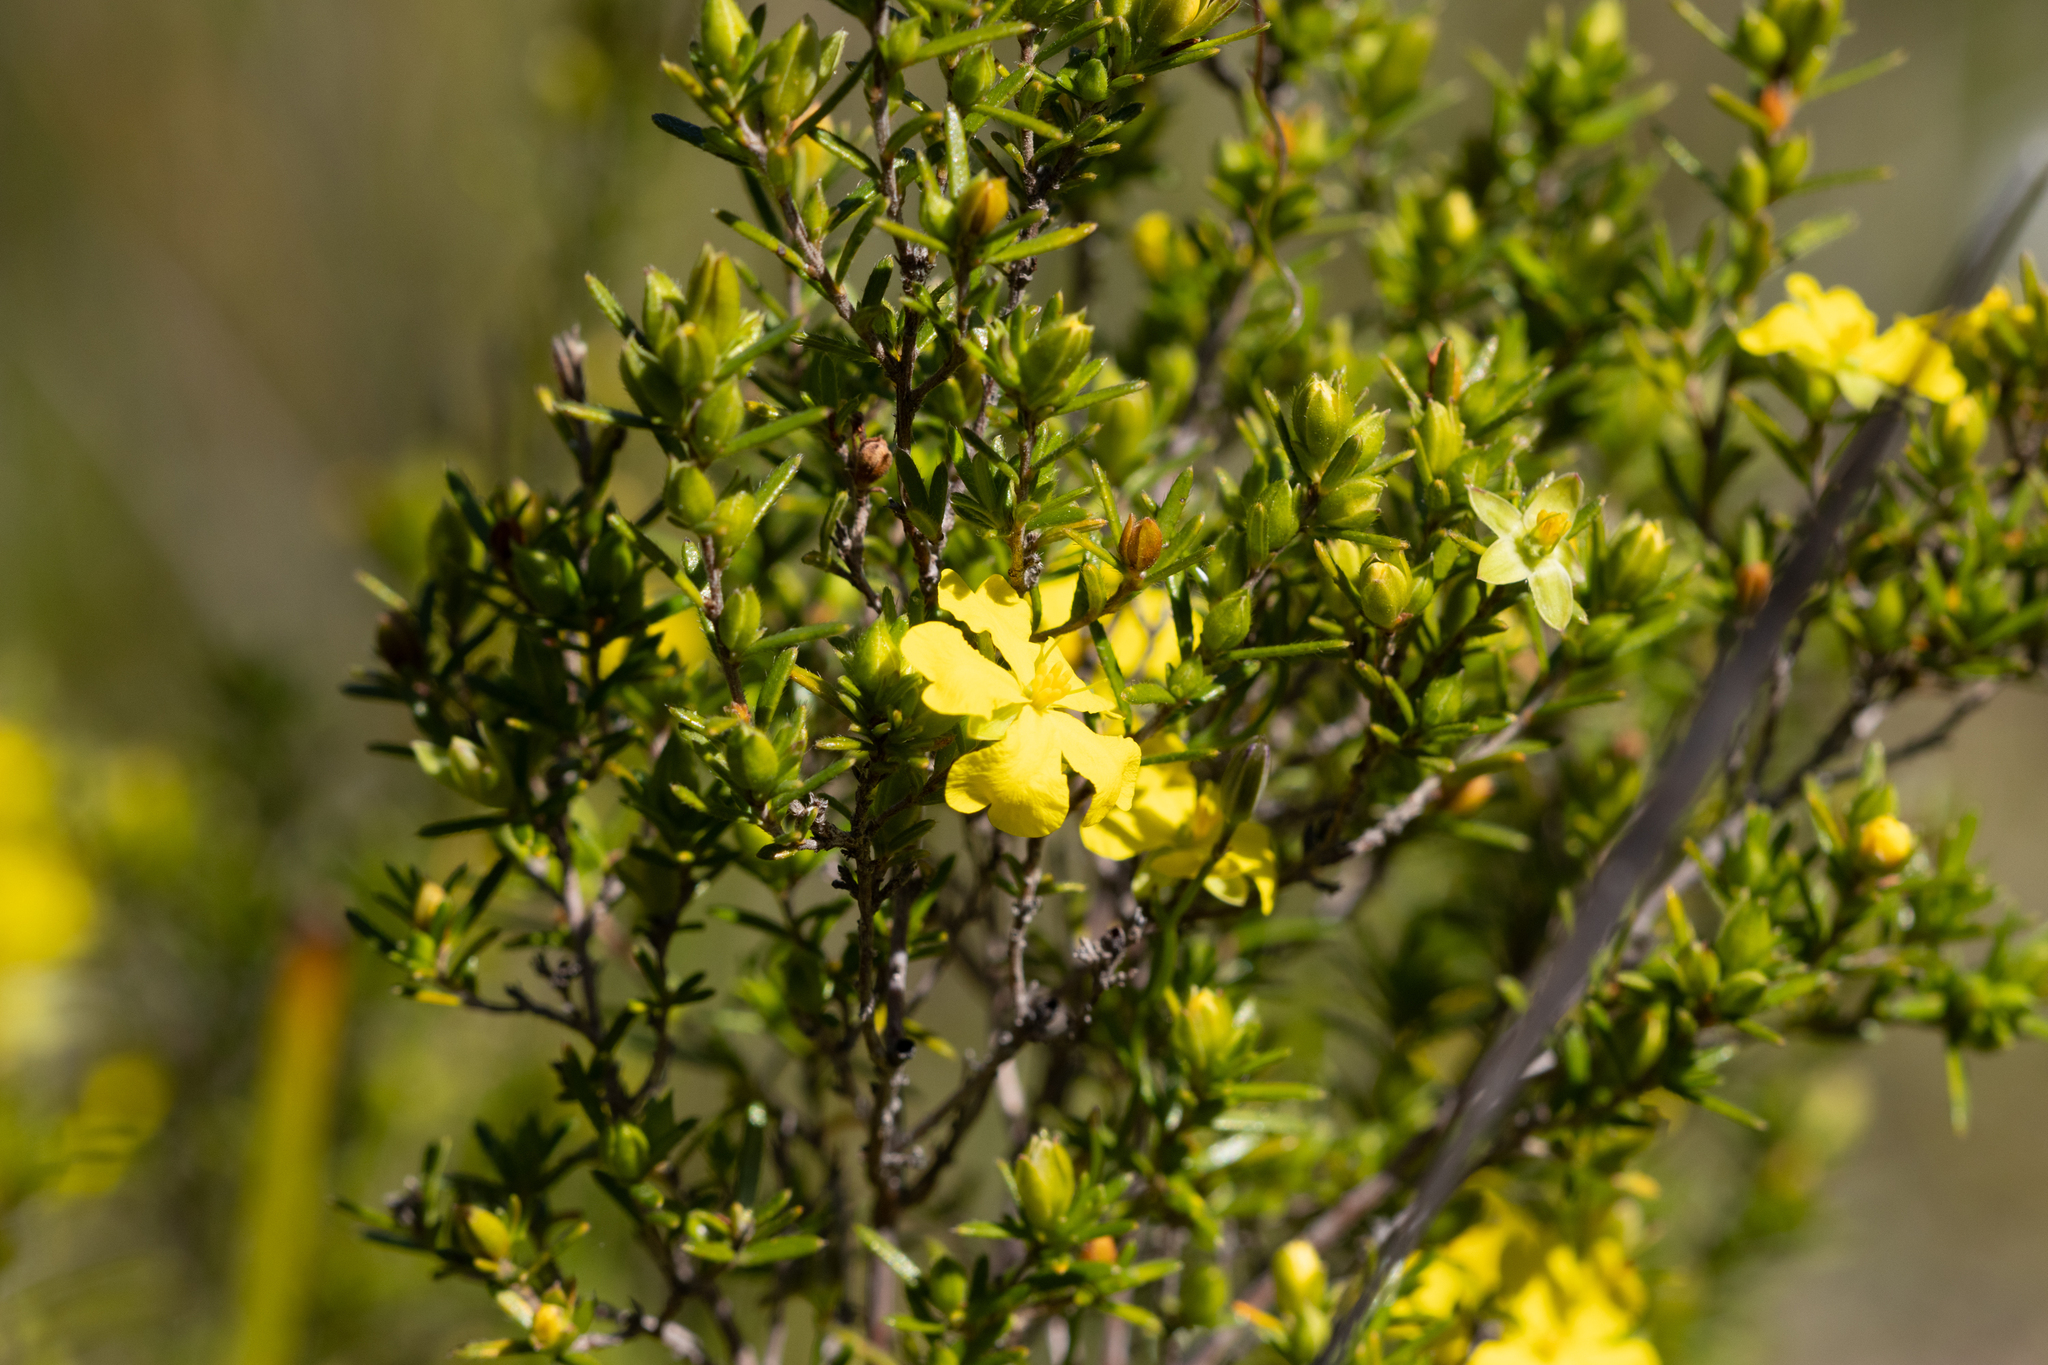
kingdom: Plantae
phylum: Tracheophyta
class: Magnoliopsida
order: Dilleniales
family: Dilleniaceae
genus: Hibbertia
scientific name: Hibbertia riparia
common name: Erect guinea-flower
